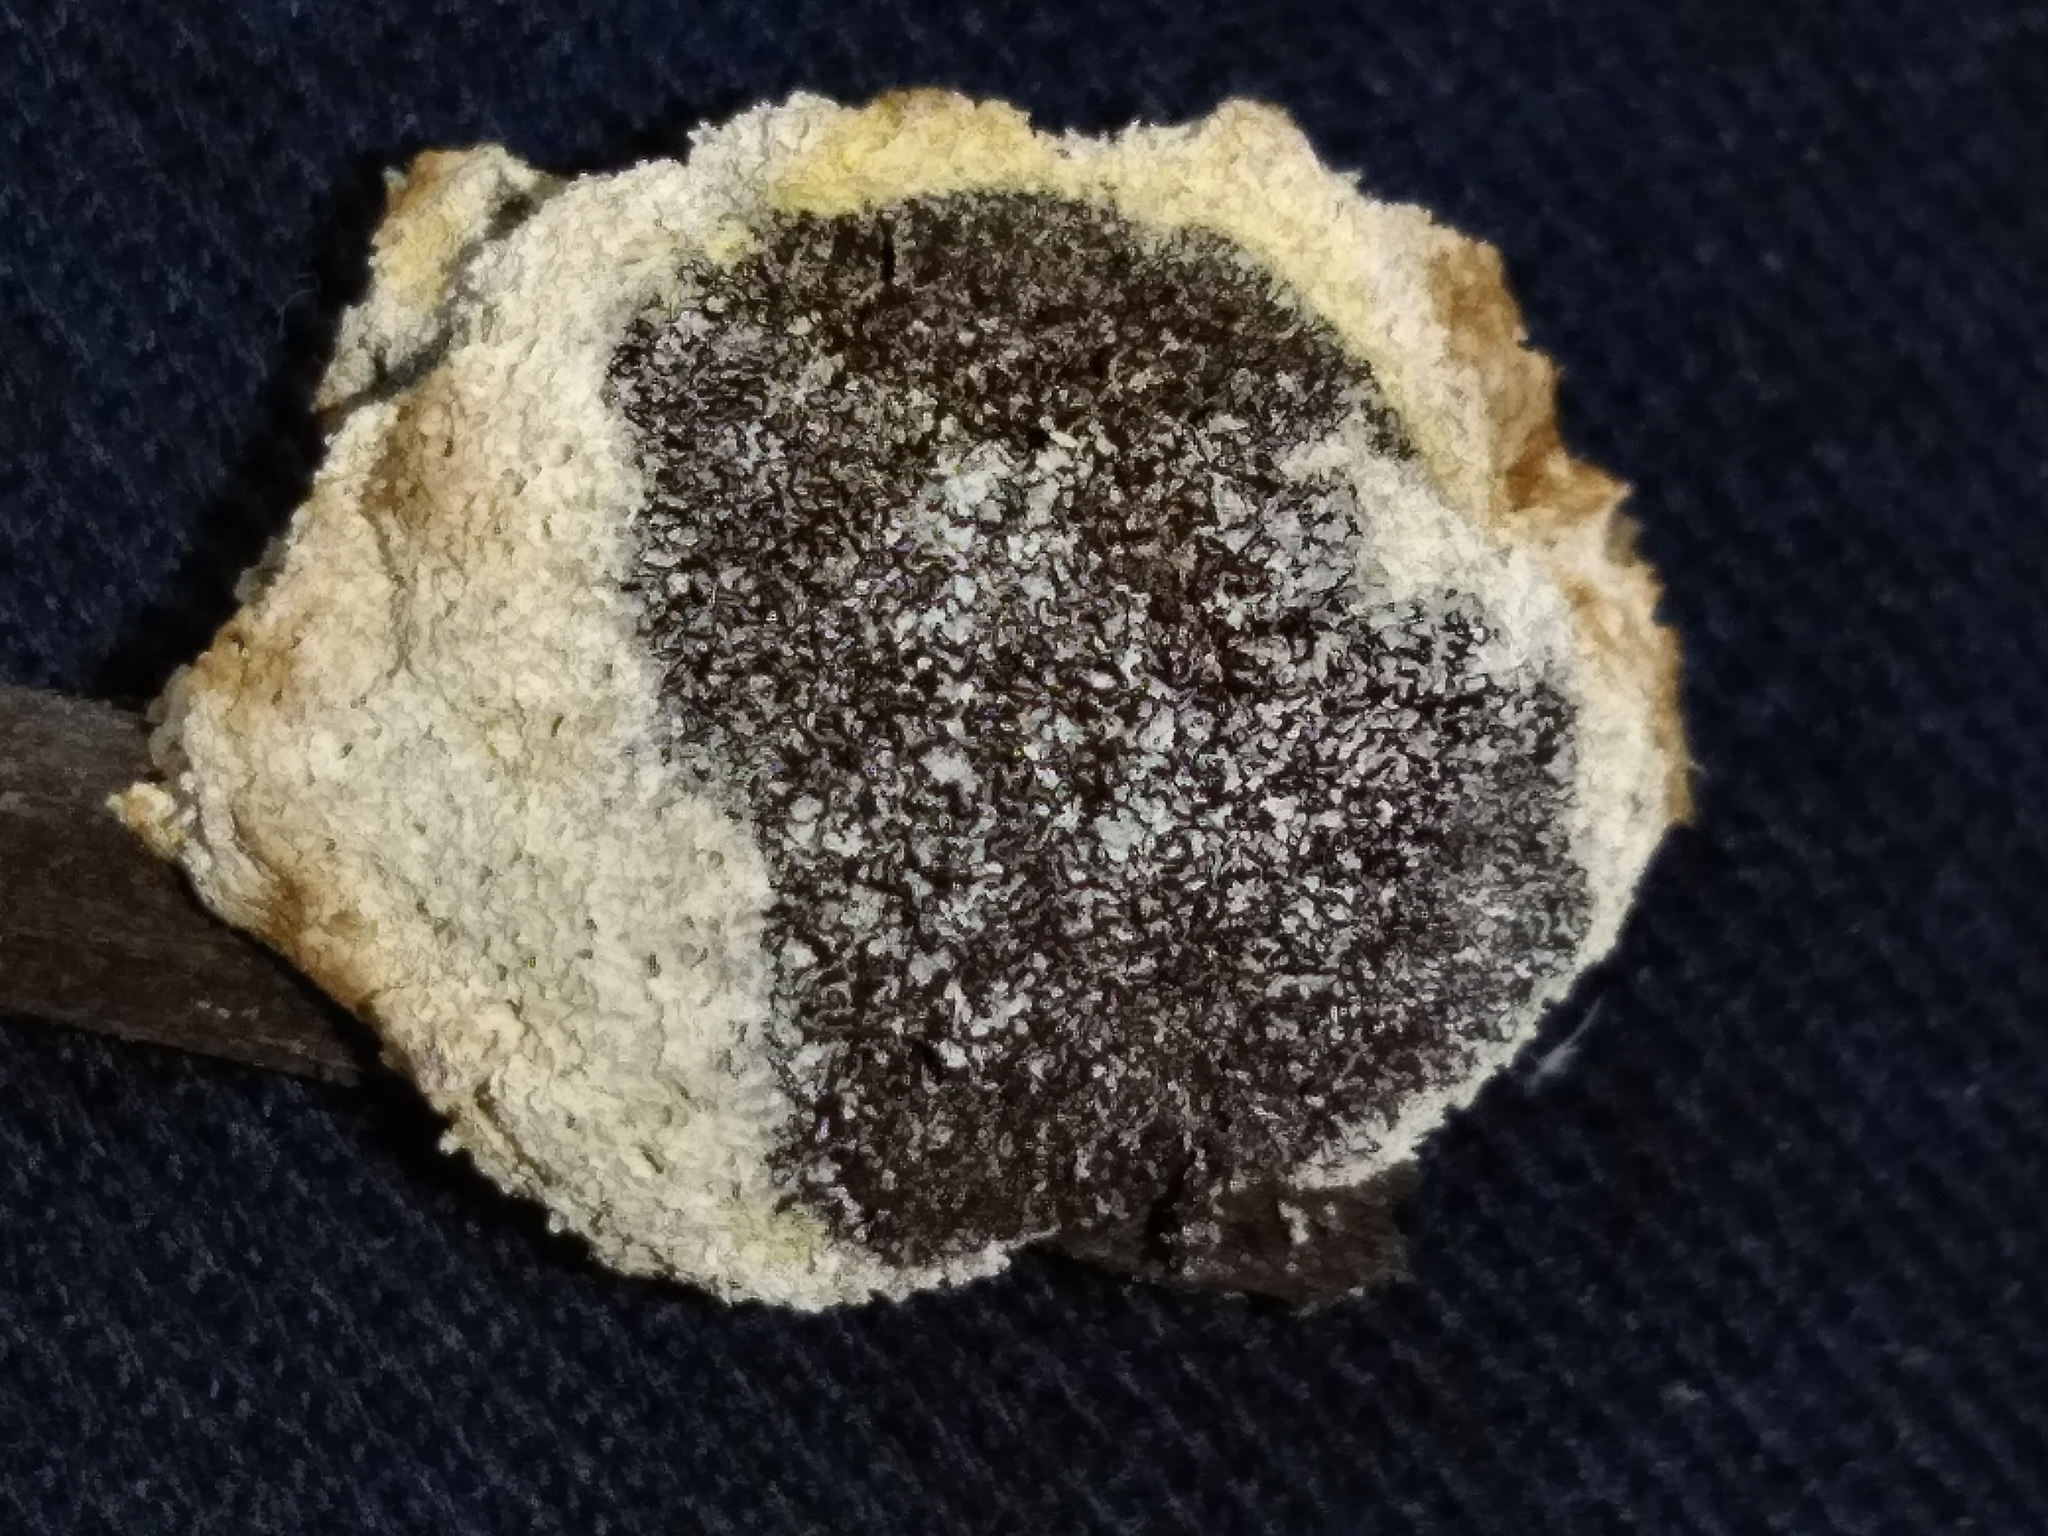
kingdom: Protozoa
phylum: Mycetozoa
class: Myxomycetes
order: Physarales
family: Physaraceae
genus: Didymium
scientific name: Didymium
